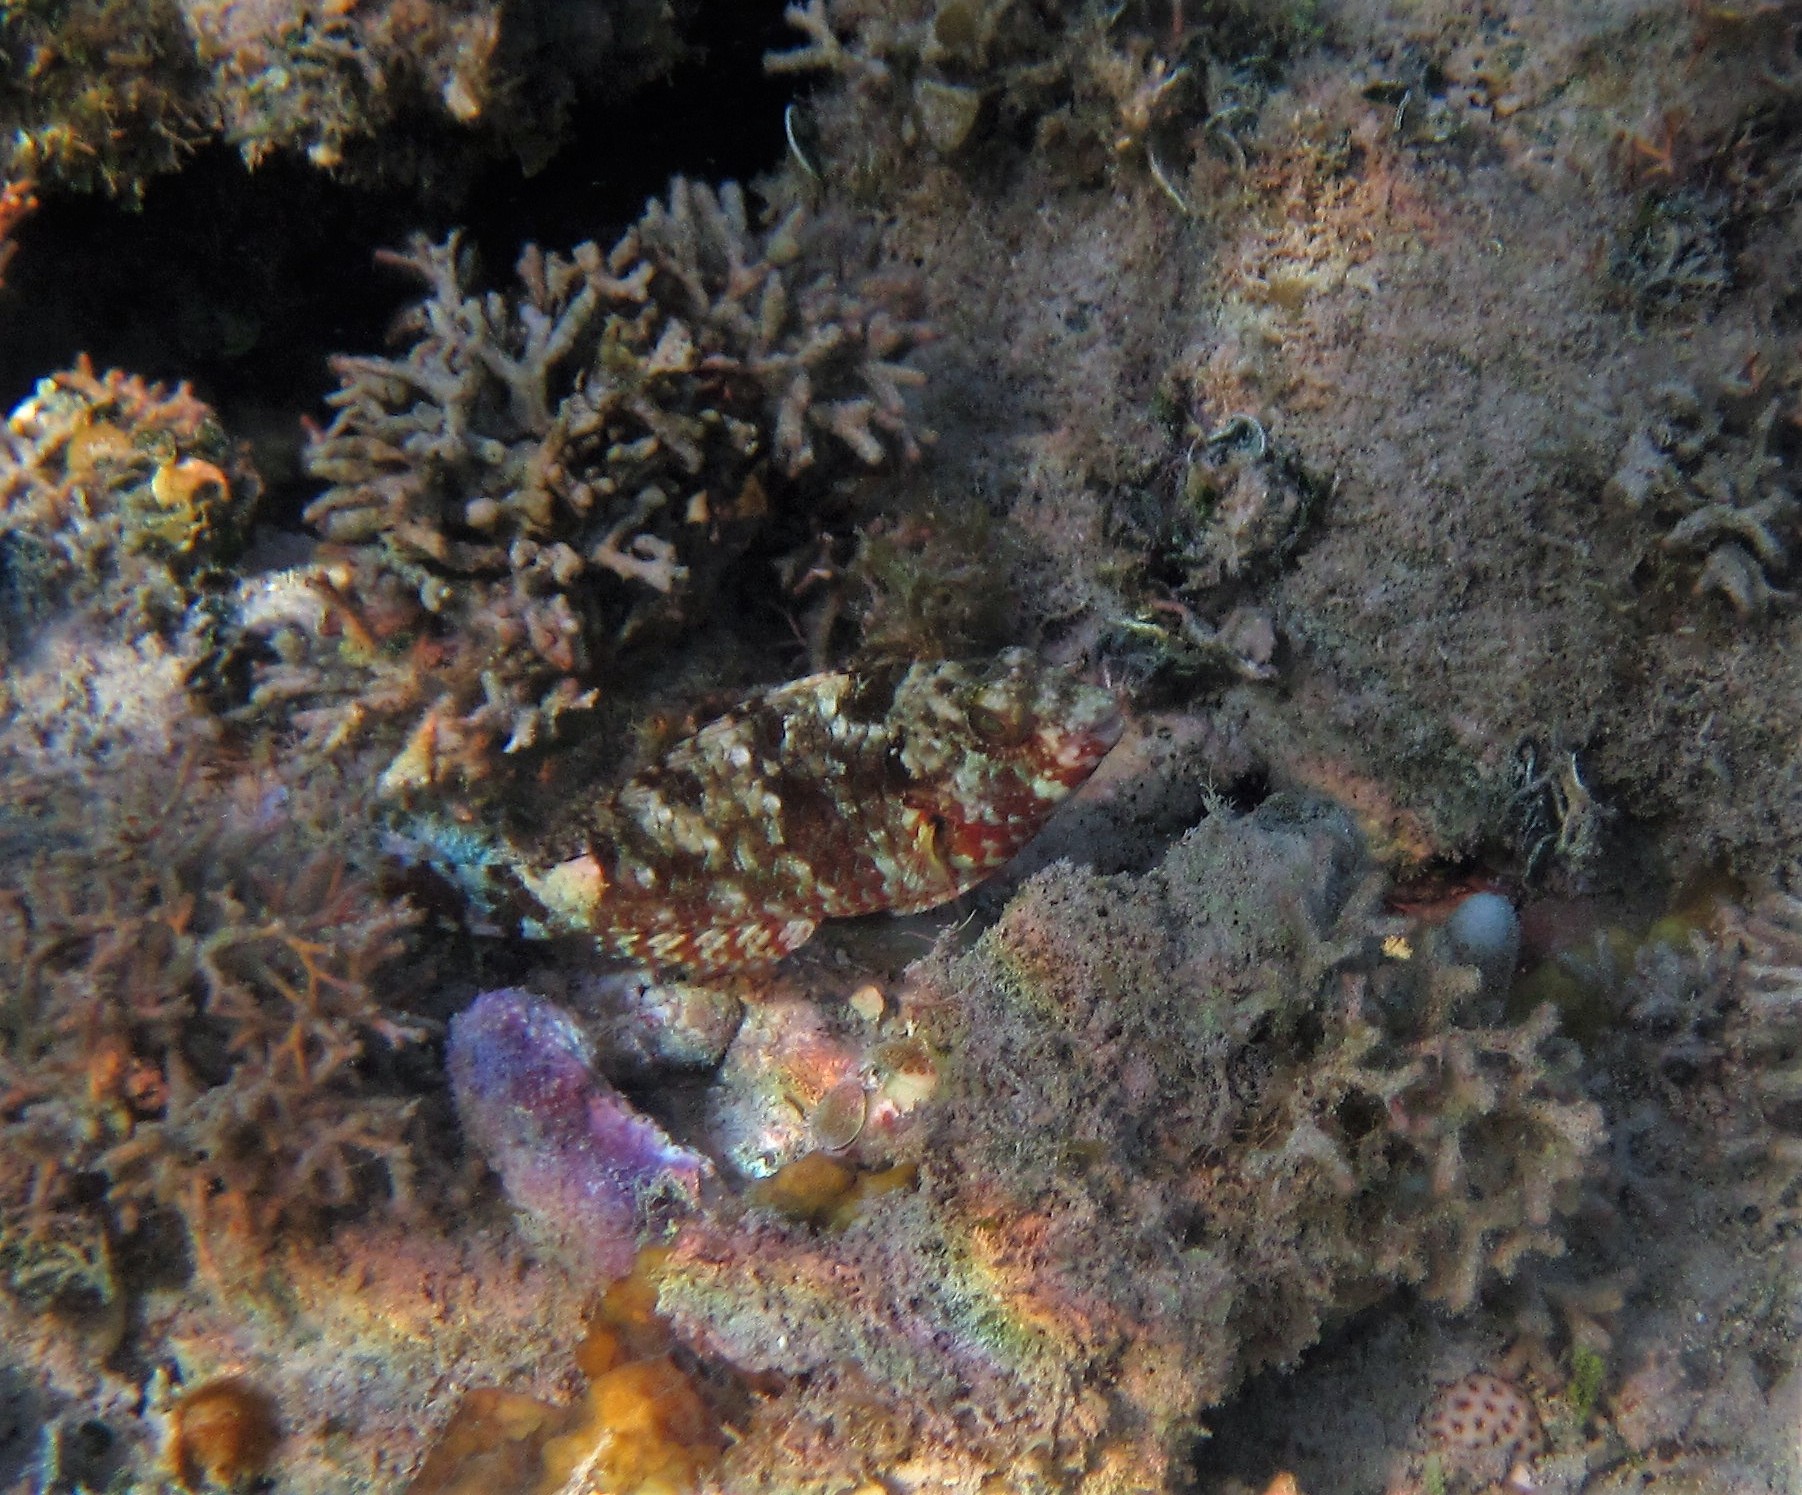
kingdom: Animalia
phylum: Chordata
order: Perciformes
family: Scaridae
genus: Sparisoma
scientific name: Sparisoma rubripinne
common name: Redfin parrotfish
